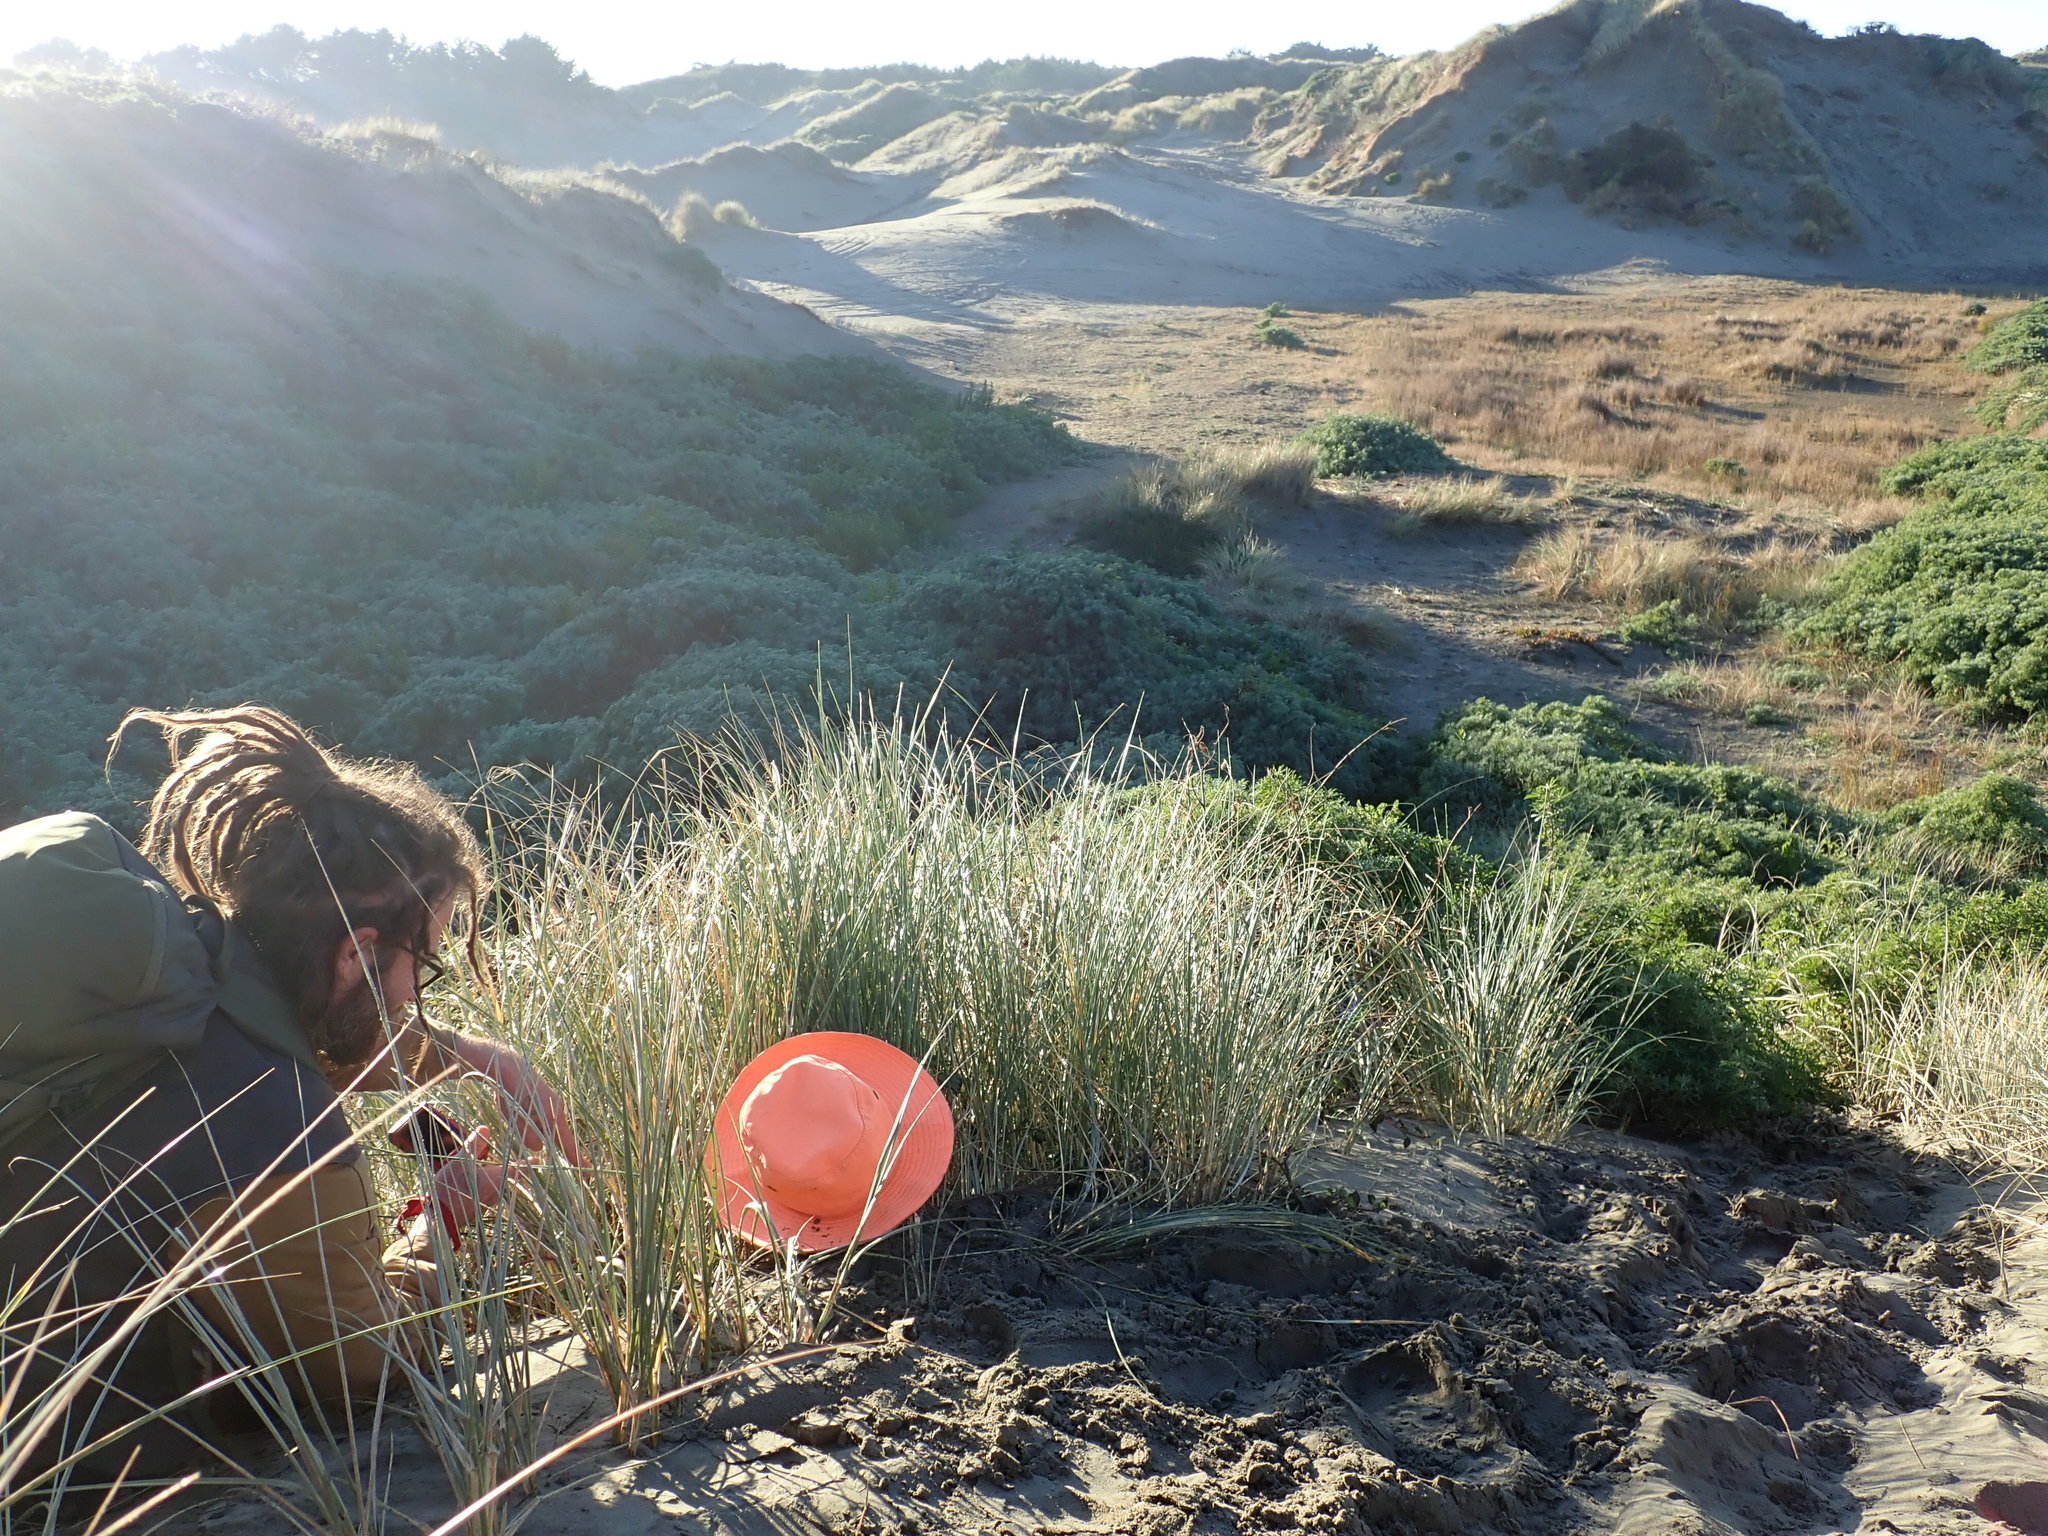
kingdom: Plantae
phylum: Tracheophyta
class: Magnoliopsida
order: Caryophyllales
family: Aizoaceae
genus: Tetragonia
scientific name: Tetragonia implexicoma
